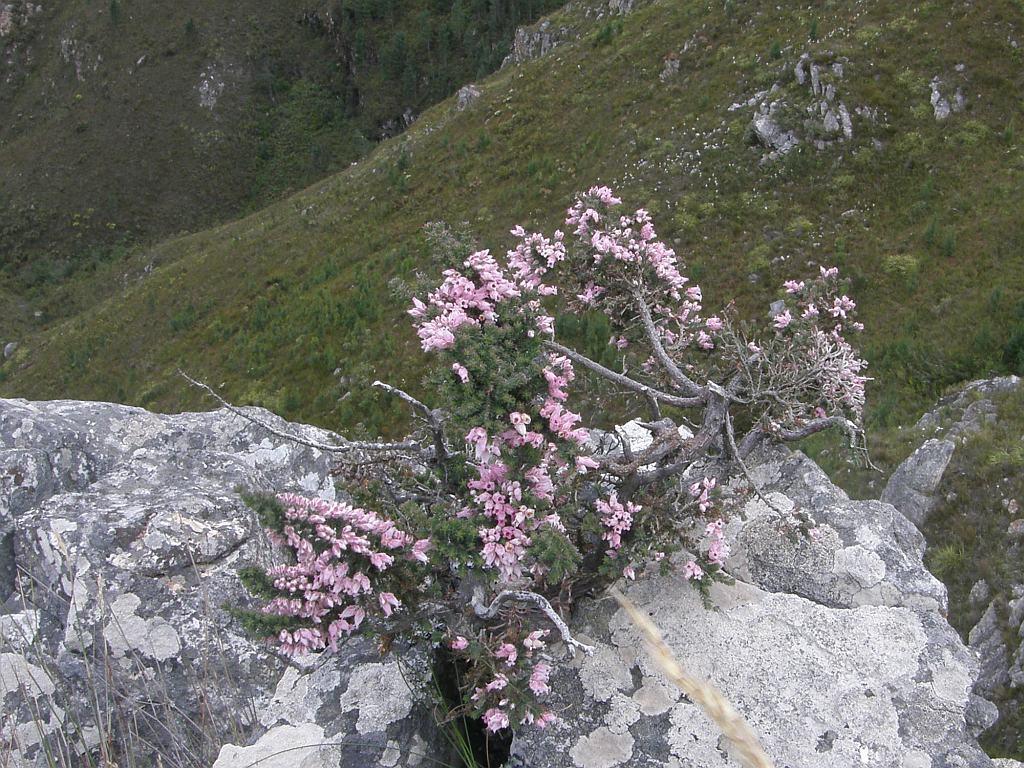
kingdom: Plantae
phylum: Tracheophyta
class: Magnoliopsida
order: Ericales
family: Ericaceae
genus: Erica
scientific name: Erica modesta
